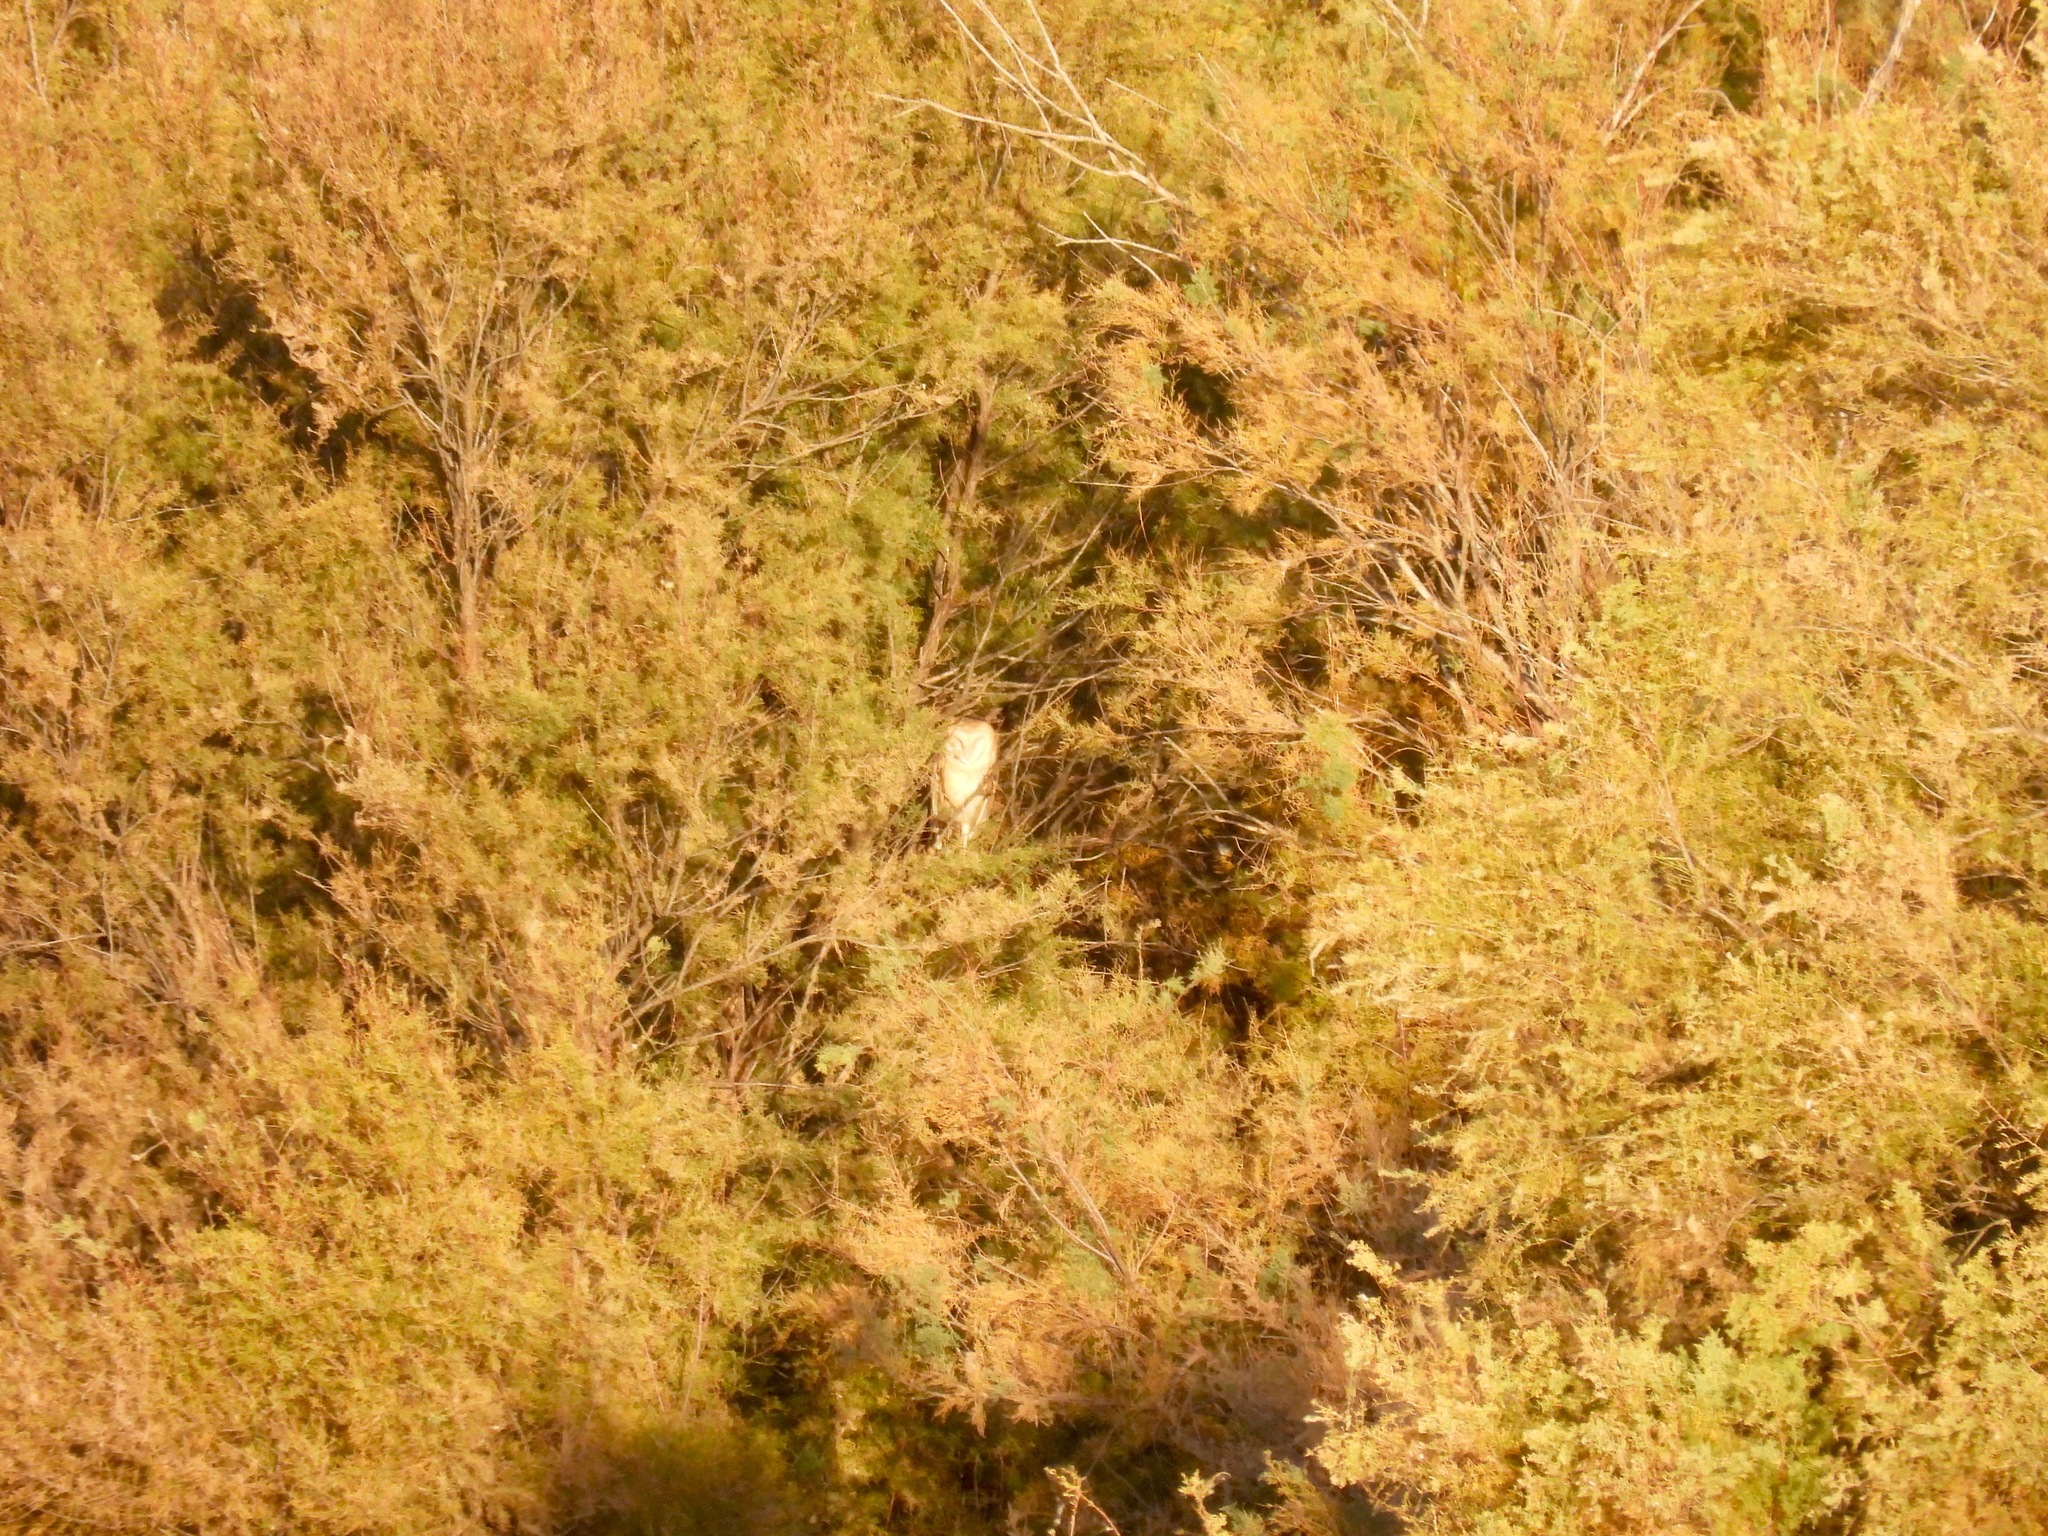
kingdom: Animalia
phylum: Chordata
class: Aves
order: Strigiformes
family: Tytonidae
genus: Tyto
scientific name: Tyto alba
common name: Barn owl
